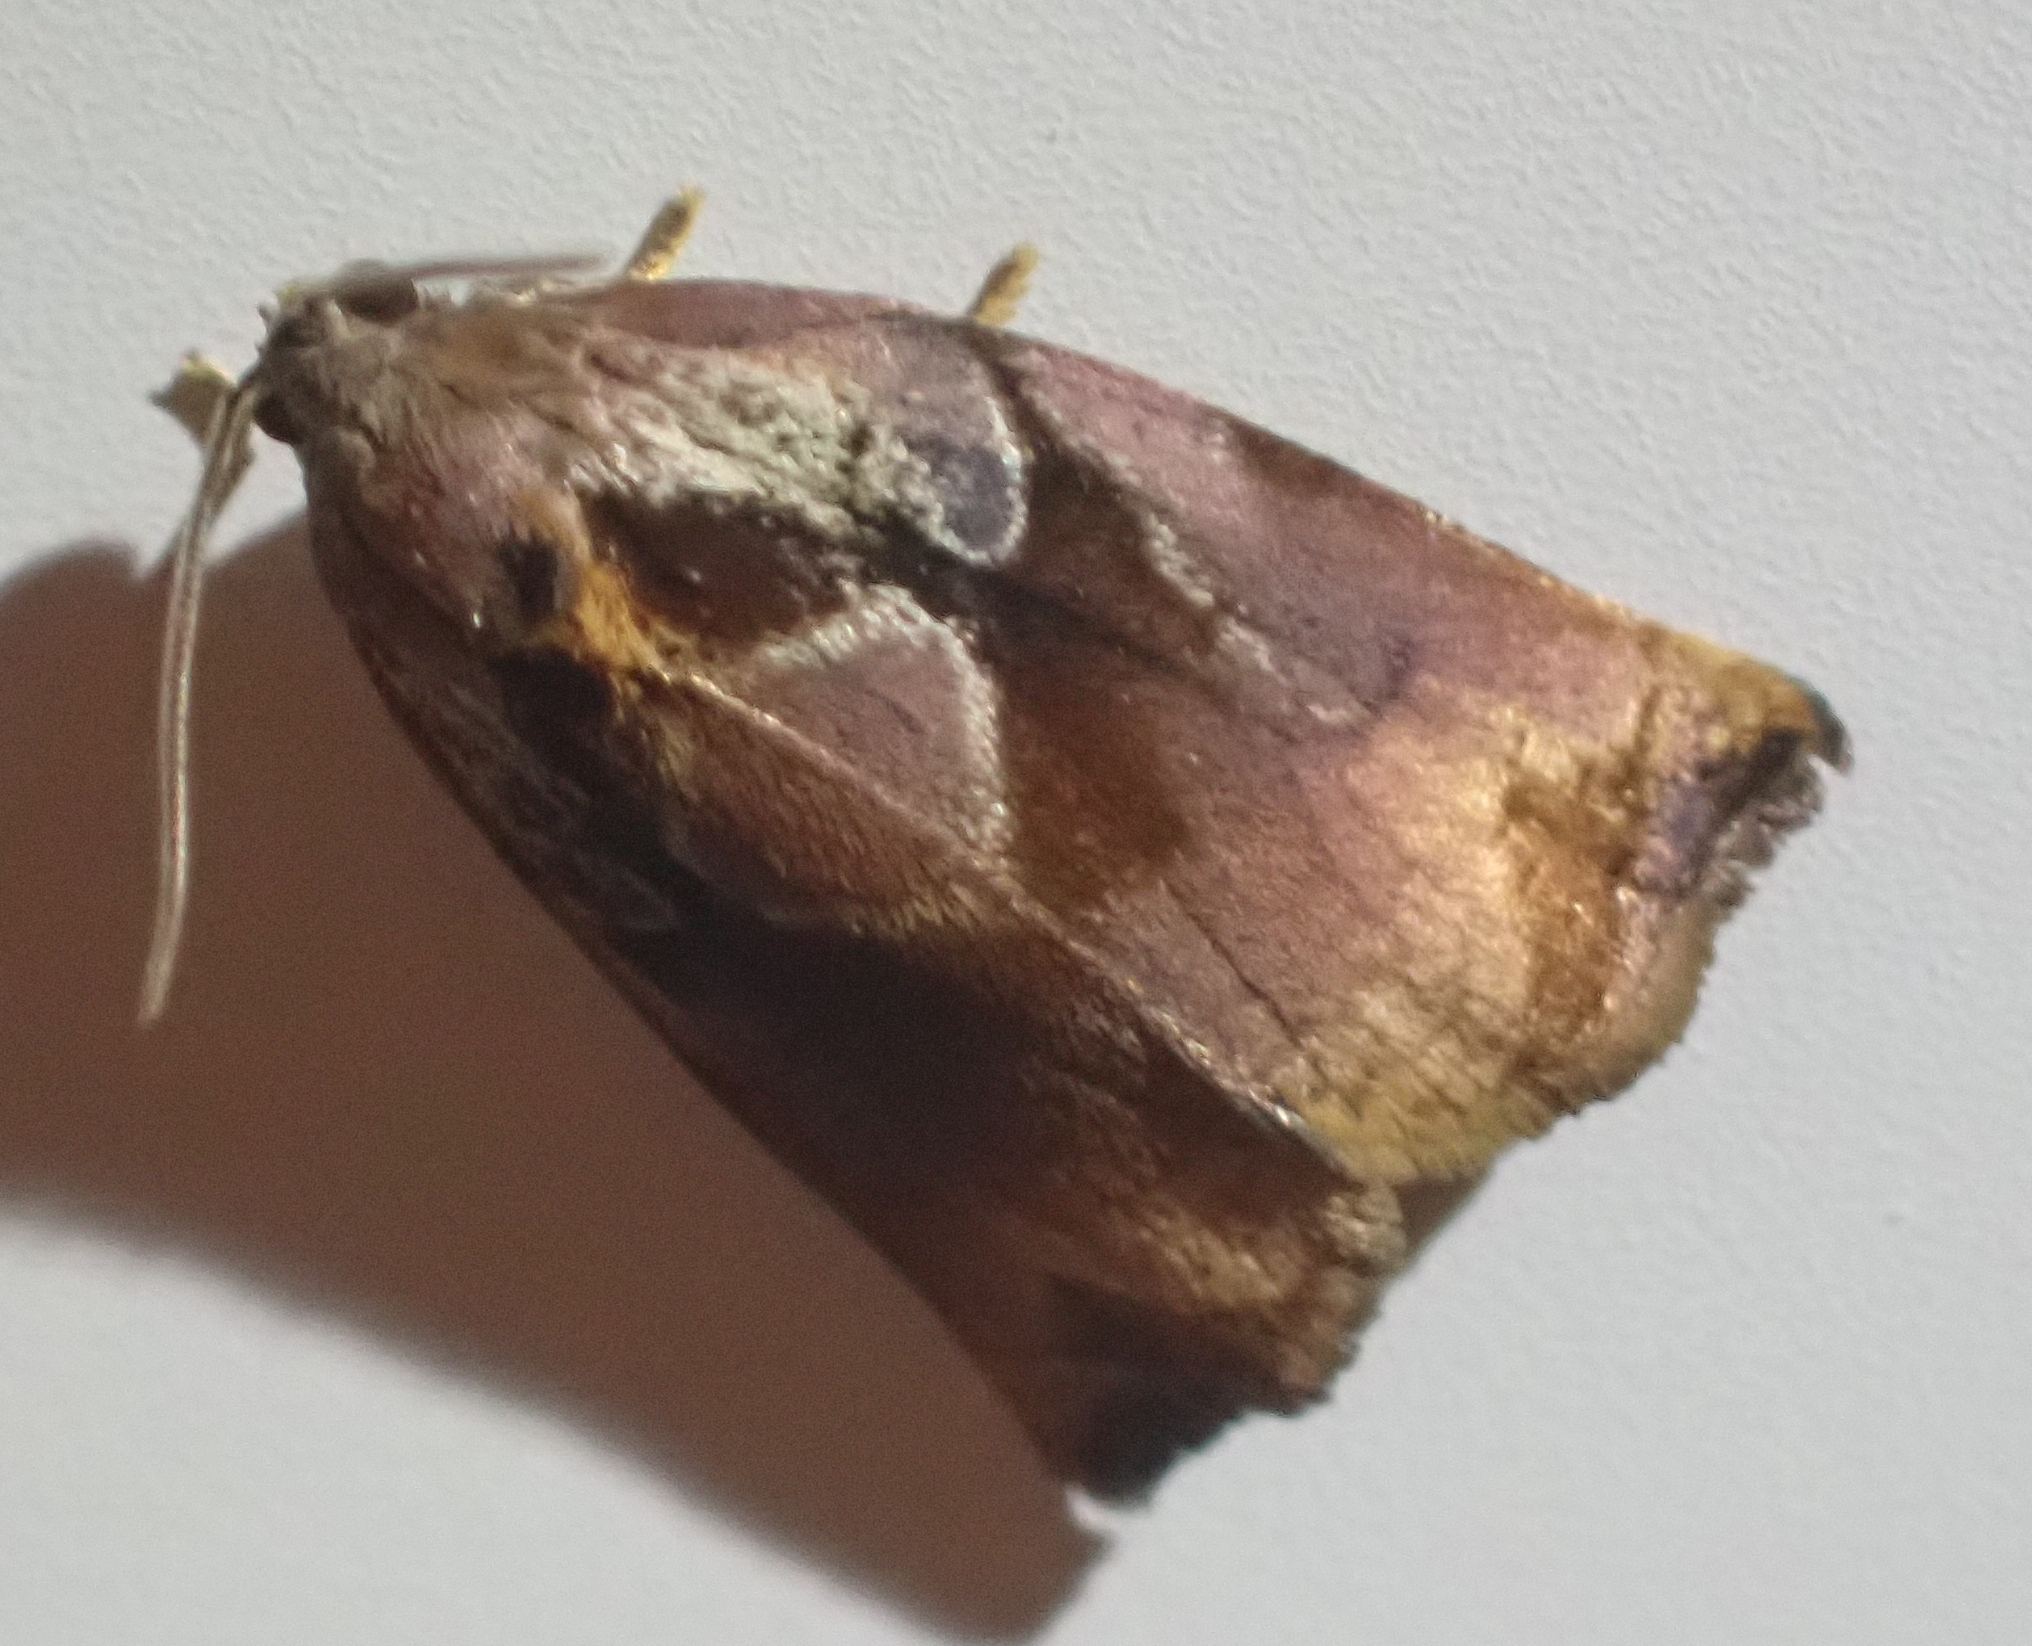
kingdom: Animalia
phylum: Arthropoda
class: Insecta
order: Lepidoptera
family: Tortricidae
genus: Archips
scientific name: Archips podana
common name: Large fruit-tree tortrix
